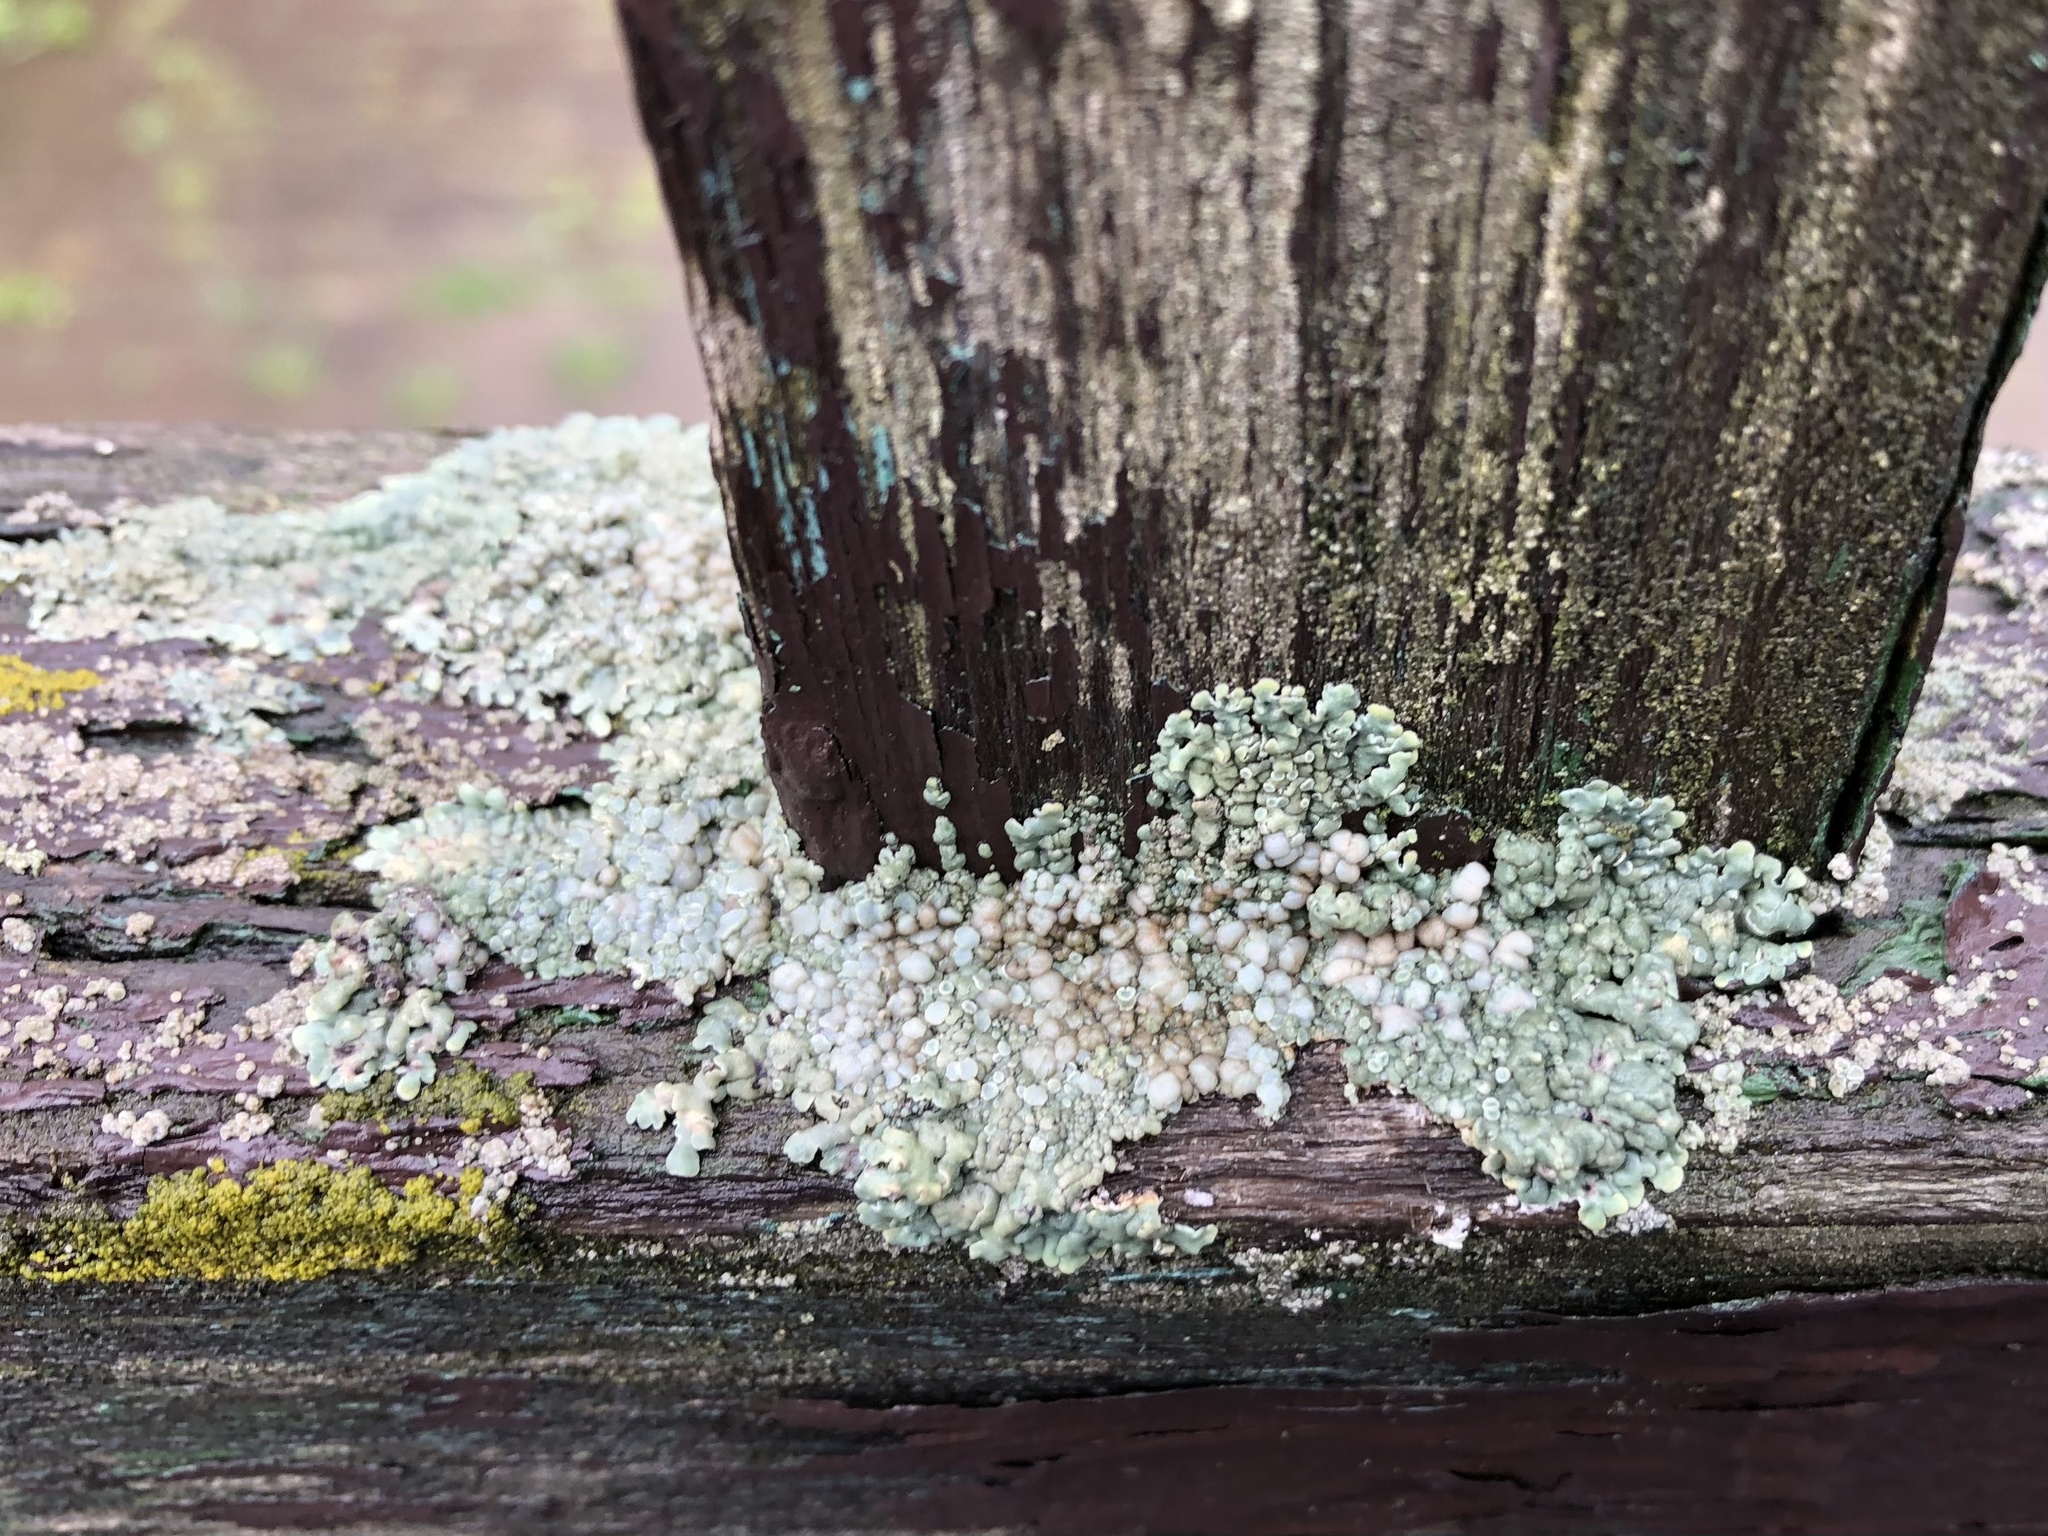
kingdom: Fungi
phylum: Ascomycota
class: Lecanoromycetes
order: Lecanorales
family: Lecanoraceae
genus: Protoparmeliopsis
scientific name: Protoparmeliopsis muralis
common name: Stonewall rim lichen
